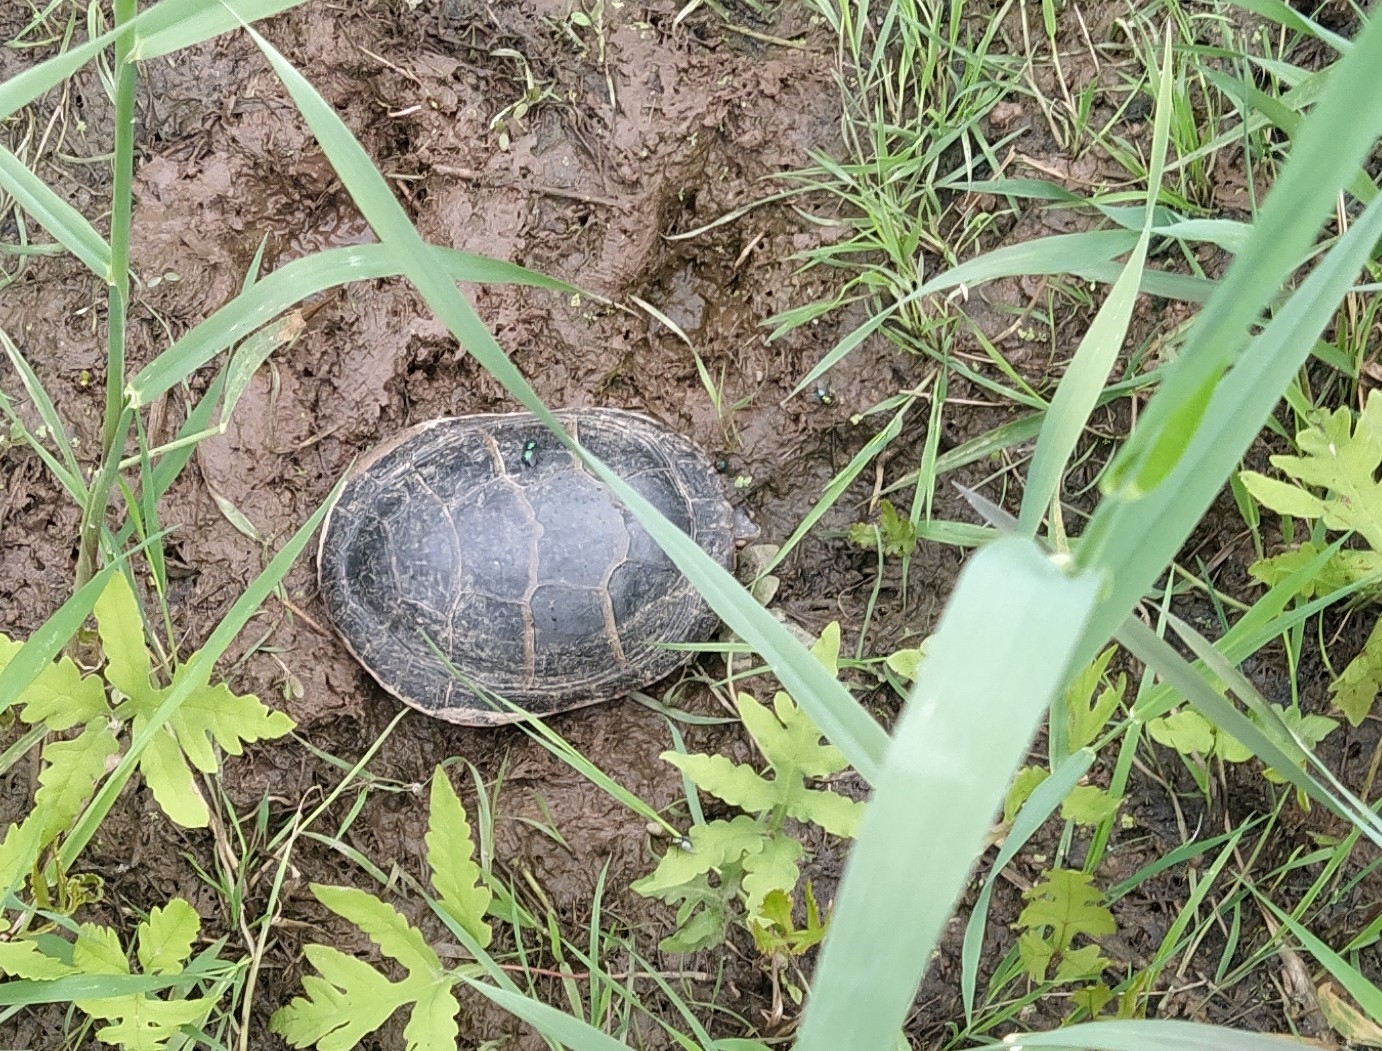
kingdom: Animalia
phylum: Chordata
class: Testudines
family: Emydidae
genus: Chrysemys
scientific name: Chrysemys picta
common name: Painted turtle
